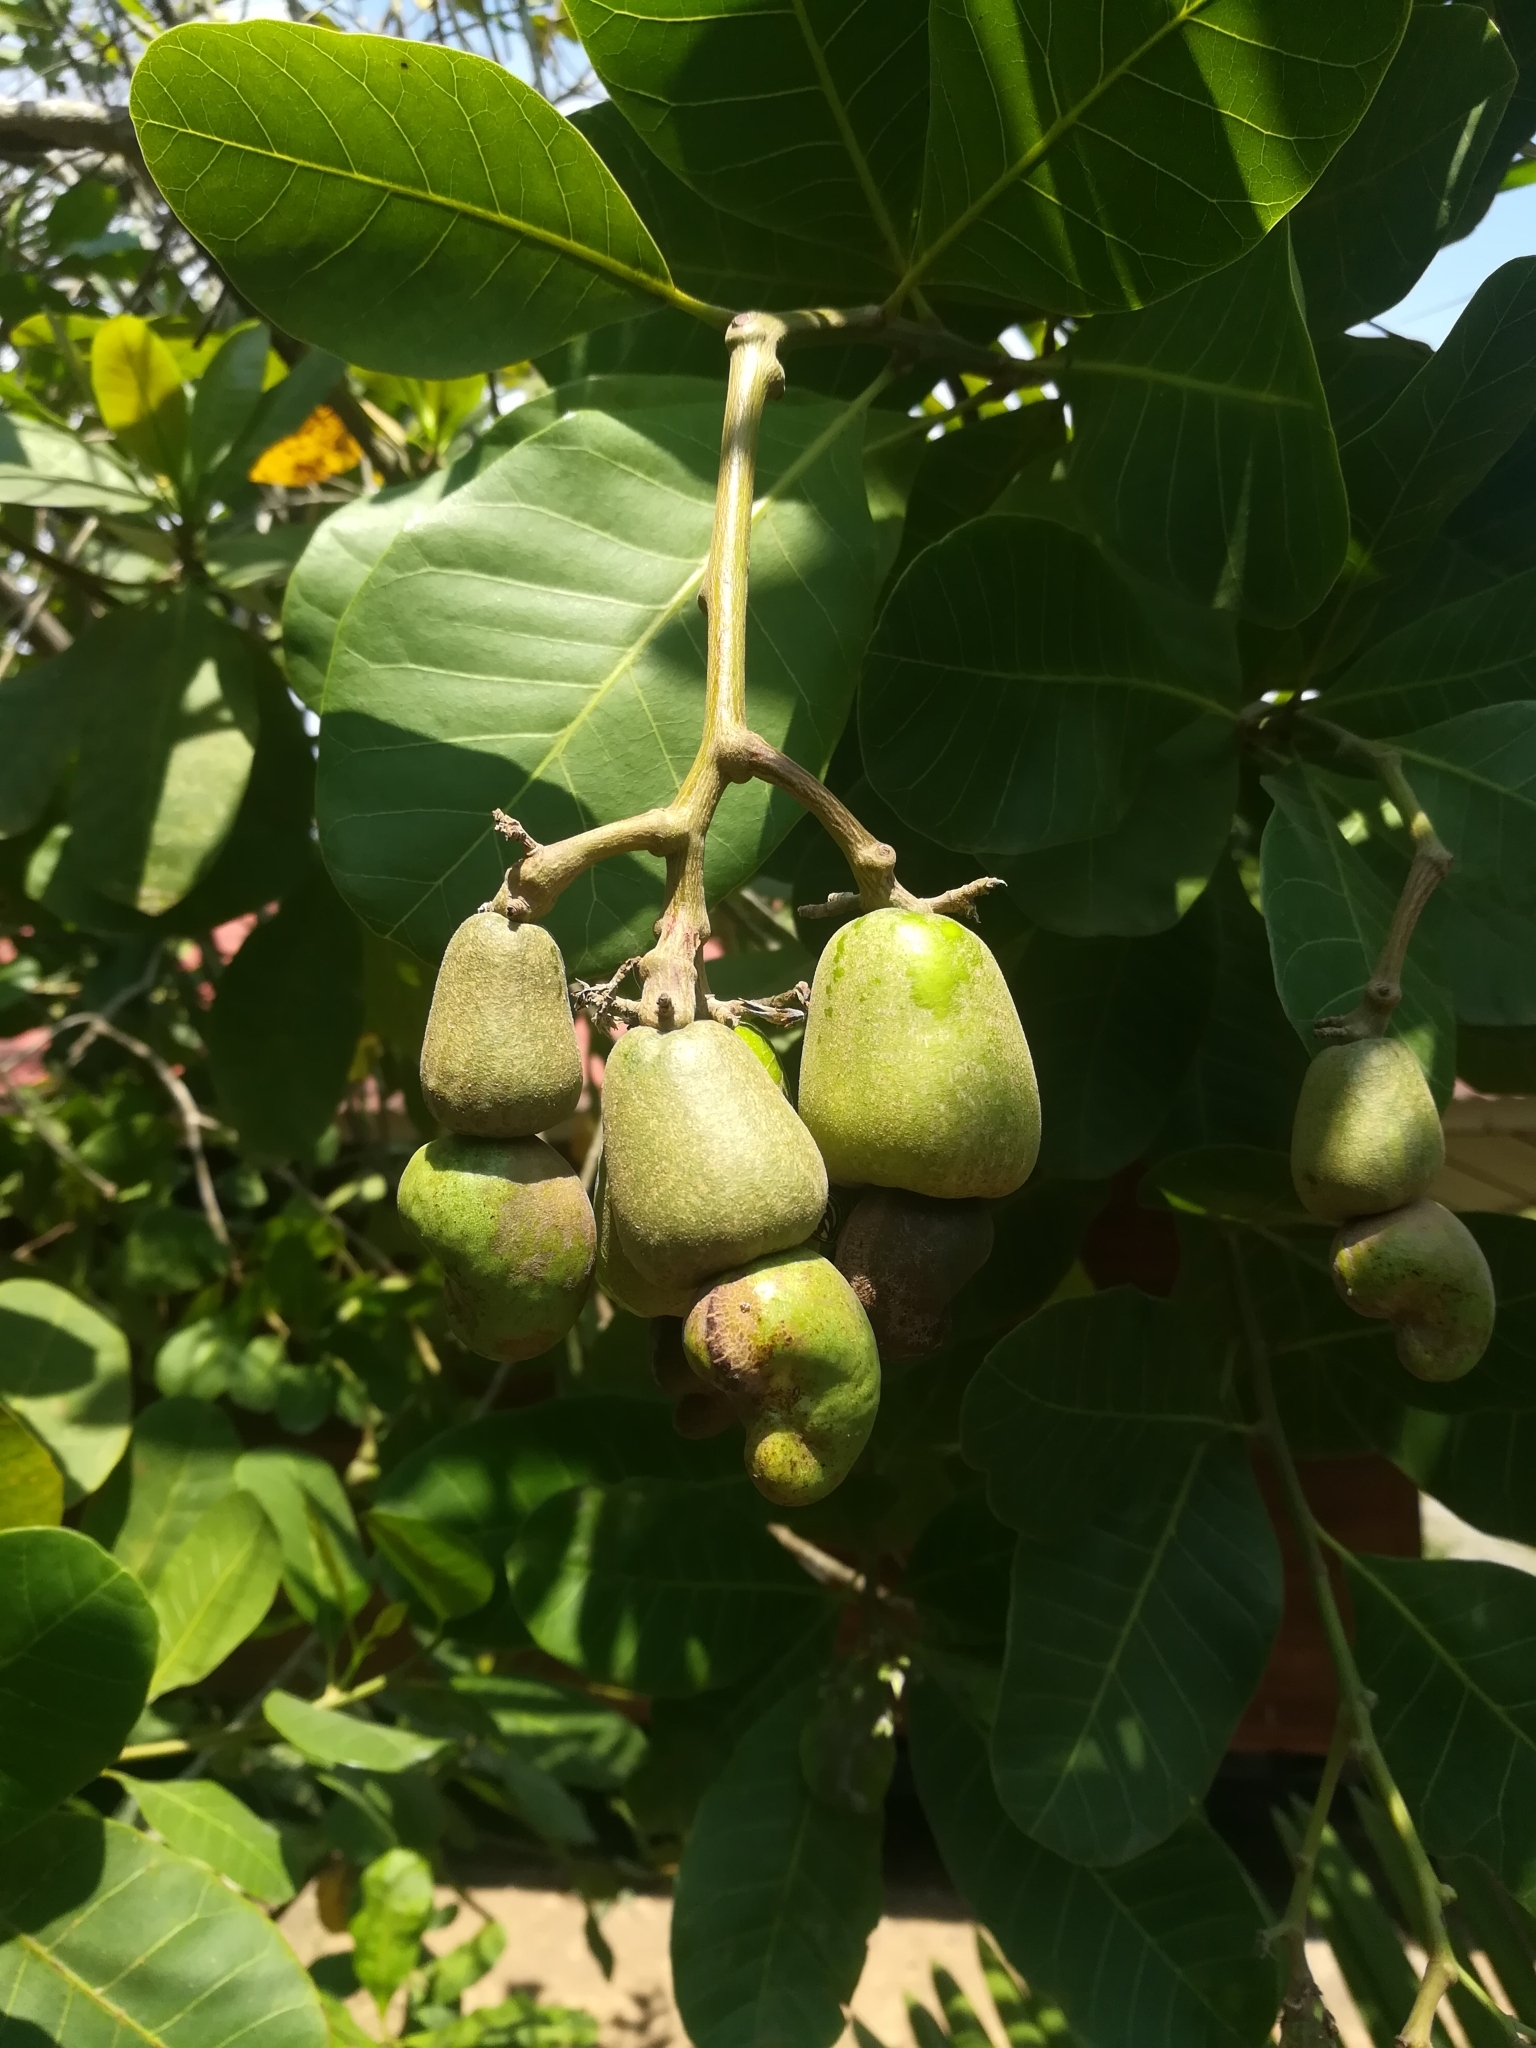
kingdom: Plantae
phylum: Tracheophyta
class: Magnoliopsida
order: Sapindales
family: Anacardiaceae
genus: Anacardium
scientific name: Anacardium occidentale
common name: Cashew
